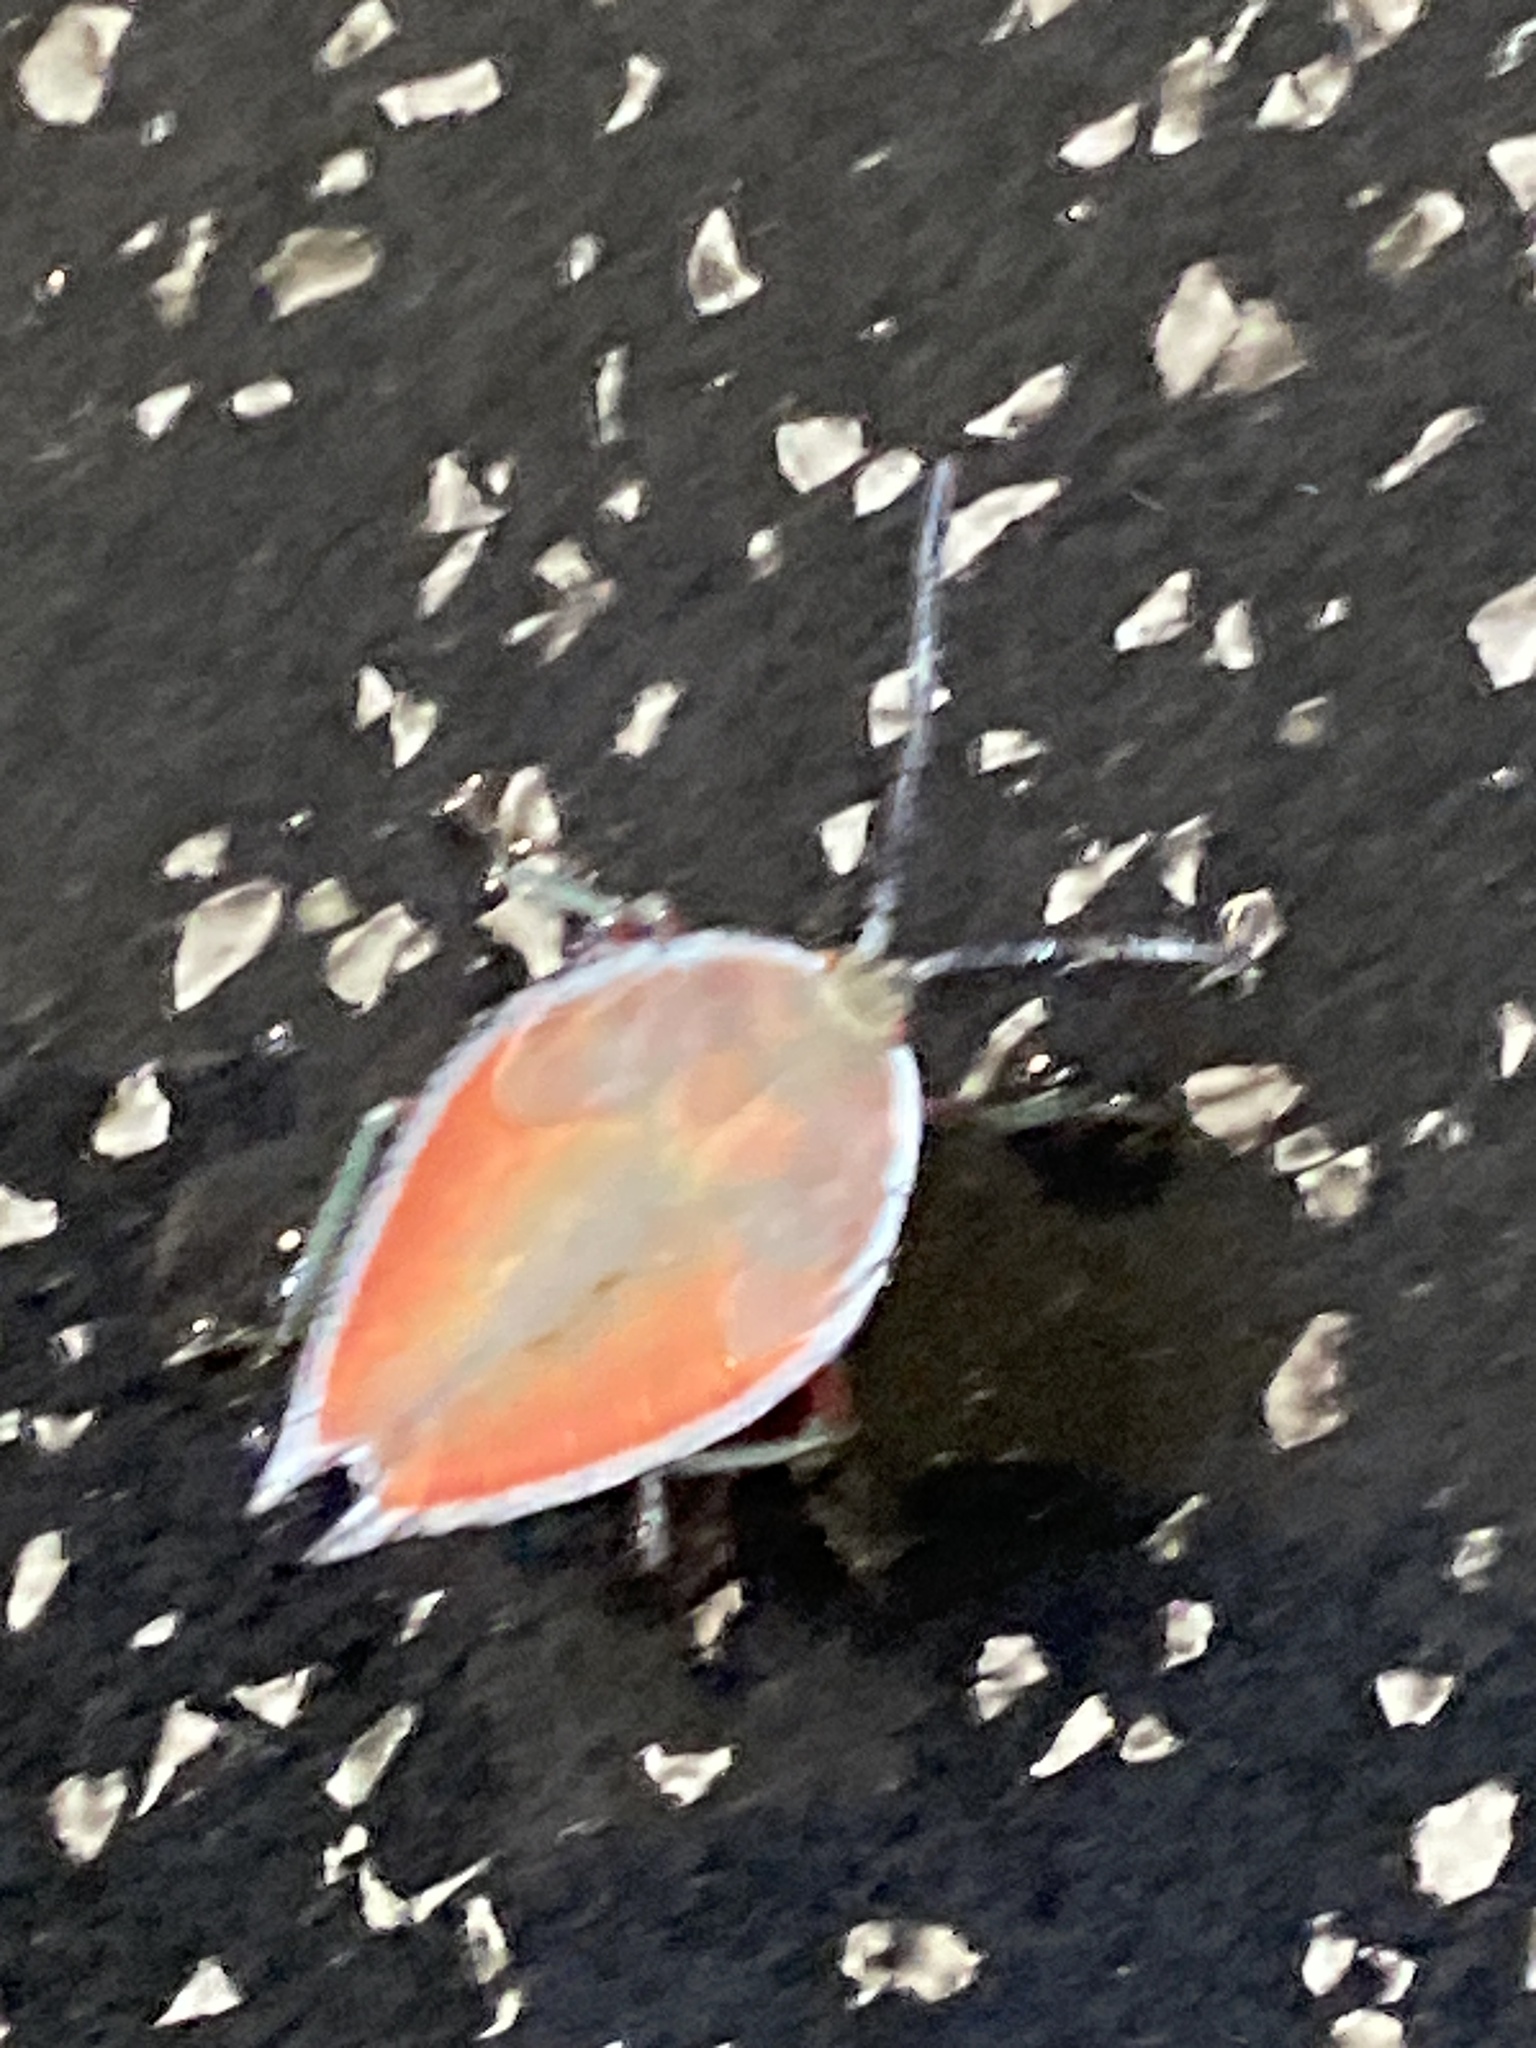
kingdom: Animalia
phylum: Arthropoda
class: Insecta
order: Hemiptera
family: Tessaratomidae
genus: Lyramorpha
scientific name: Lyramorpha rosea
